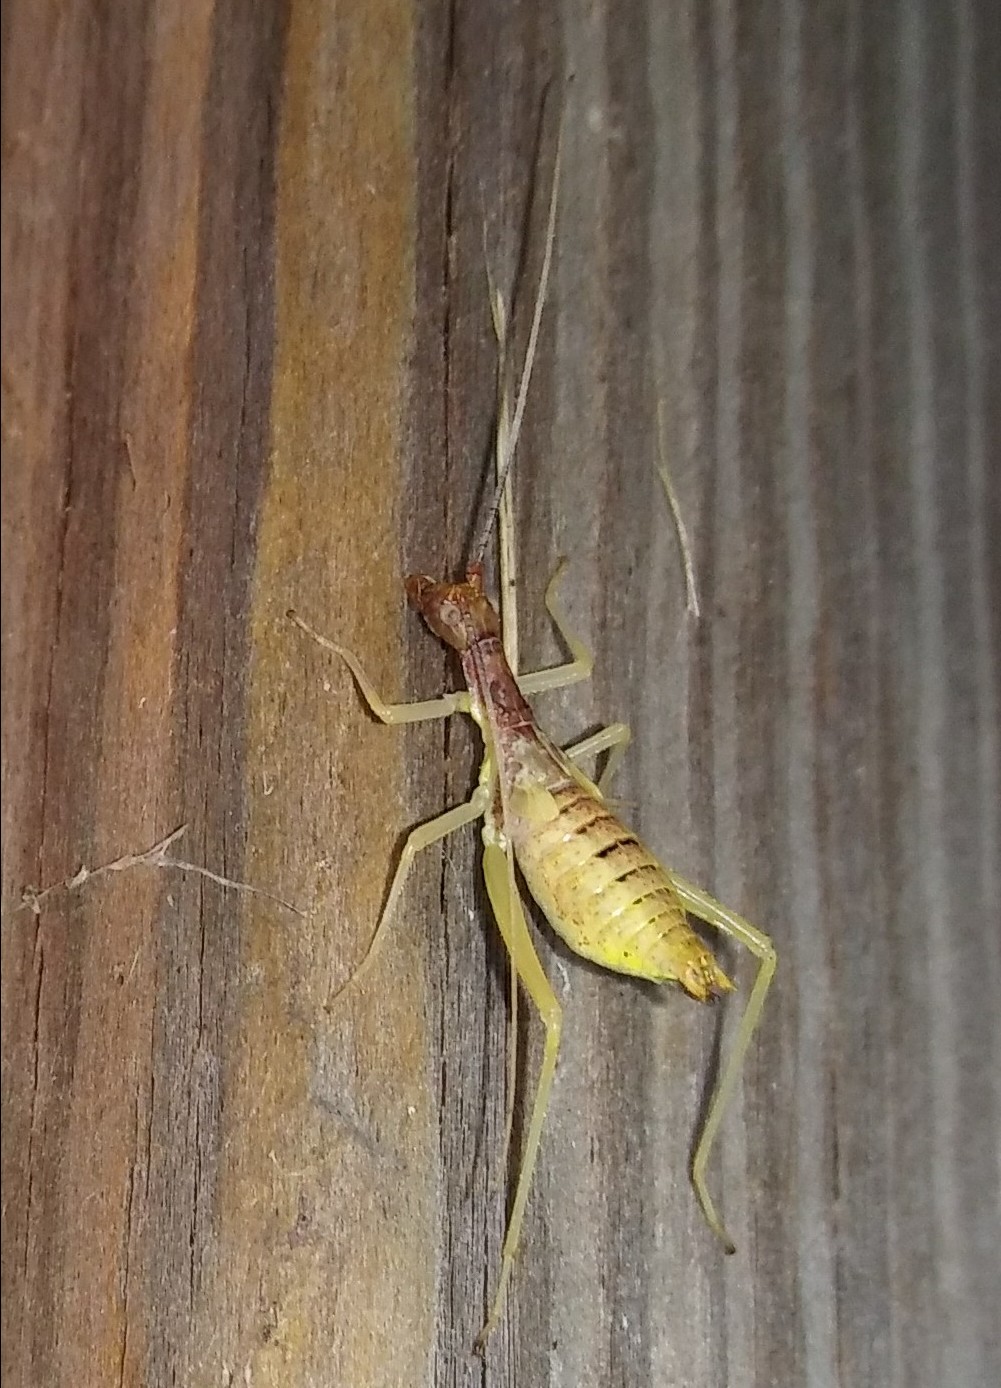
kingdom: Animalia
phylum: Arthropoda
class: Insecta
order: Orthoptera
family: Gryllidae
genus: Neoxabea
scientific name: Neoxabea bipunctata
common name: Two-spotted tree cricket
